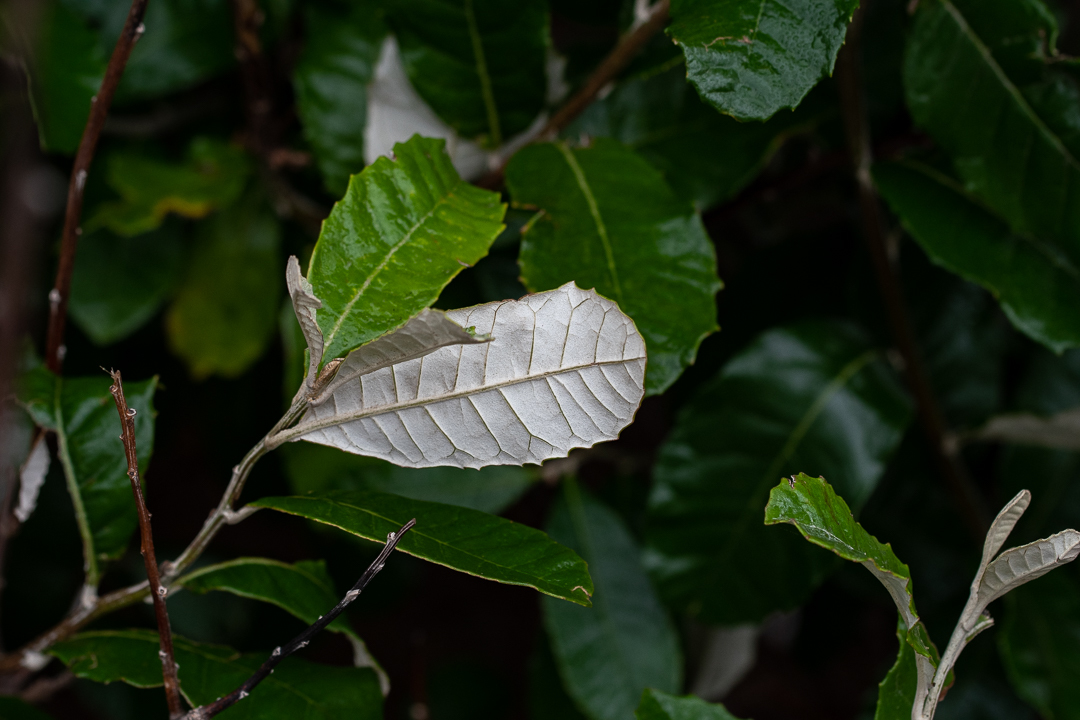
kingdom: Plantae
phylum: Tracheophyta
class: Magnoliopsida
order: Asterales
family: Asteraceae
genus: Brachylaena
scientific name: Brachylaena discolor
